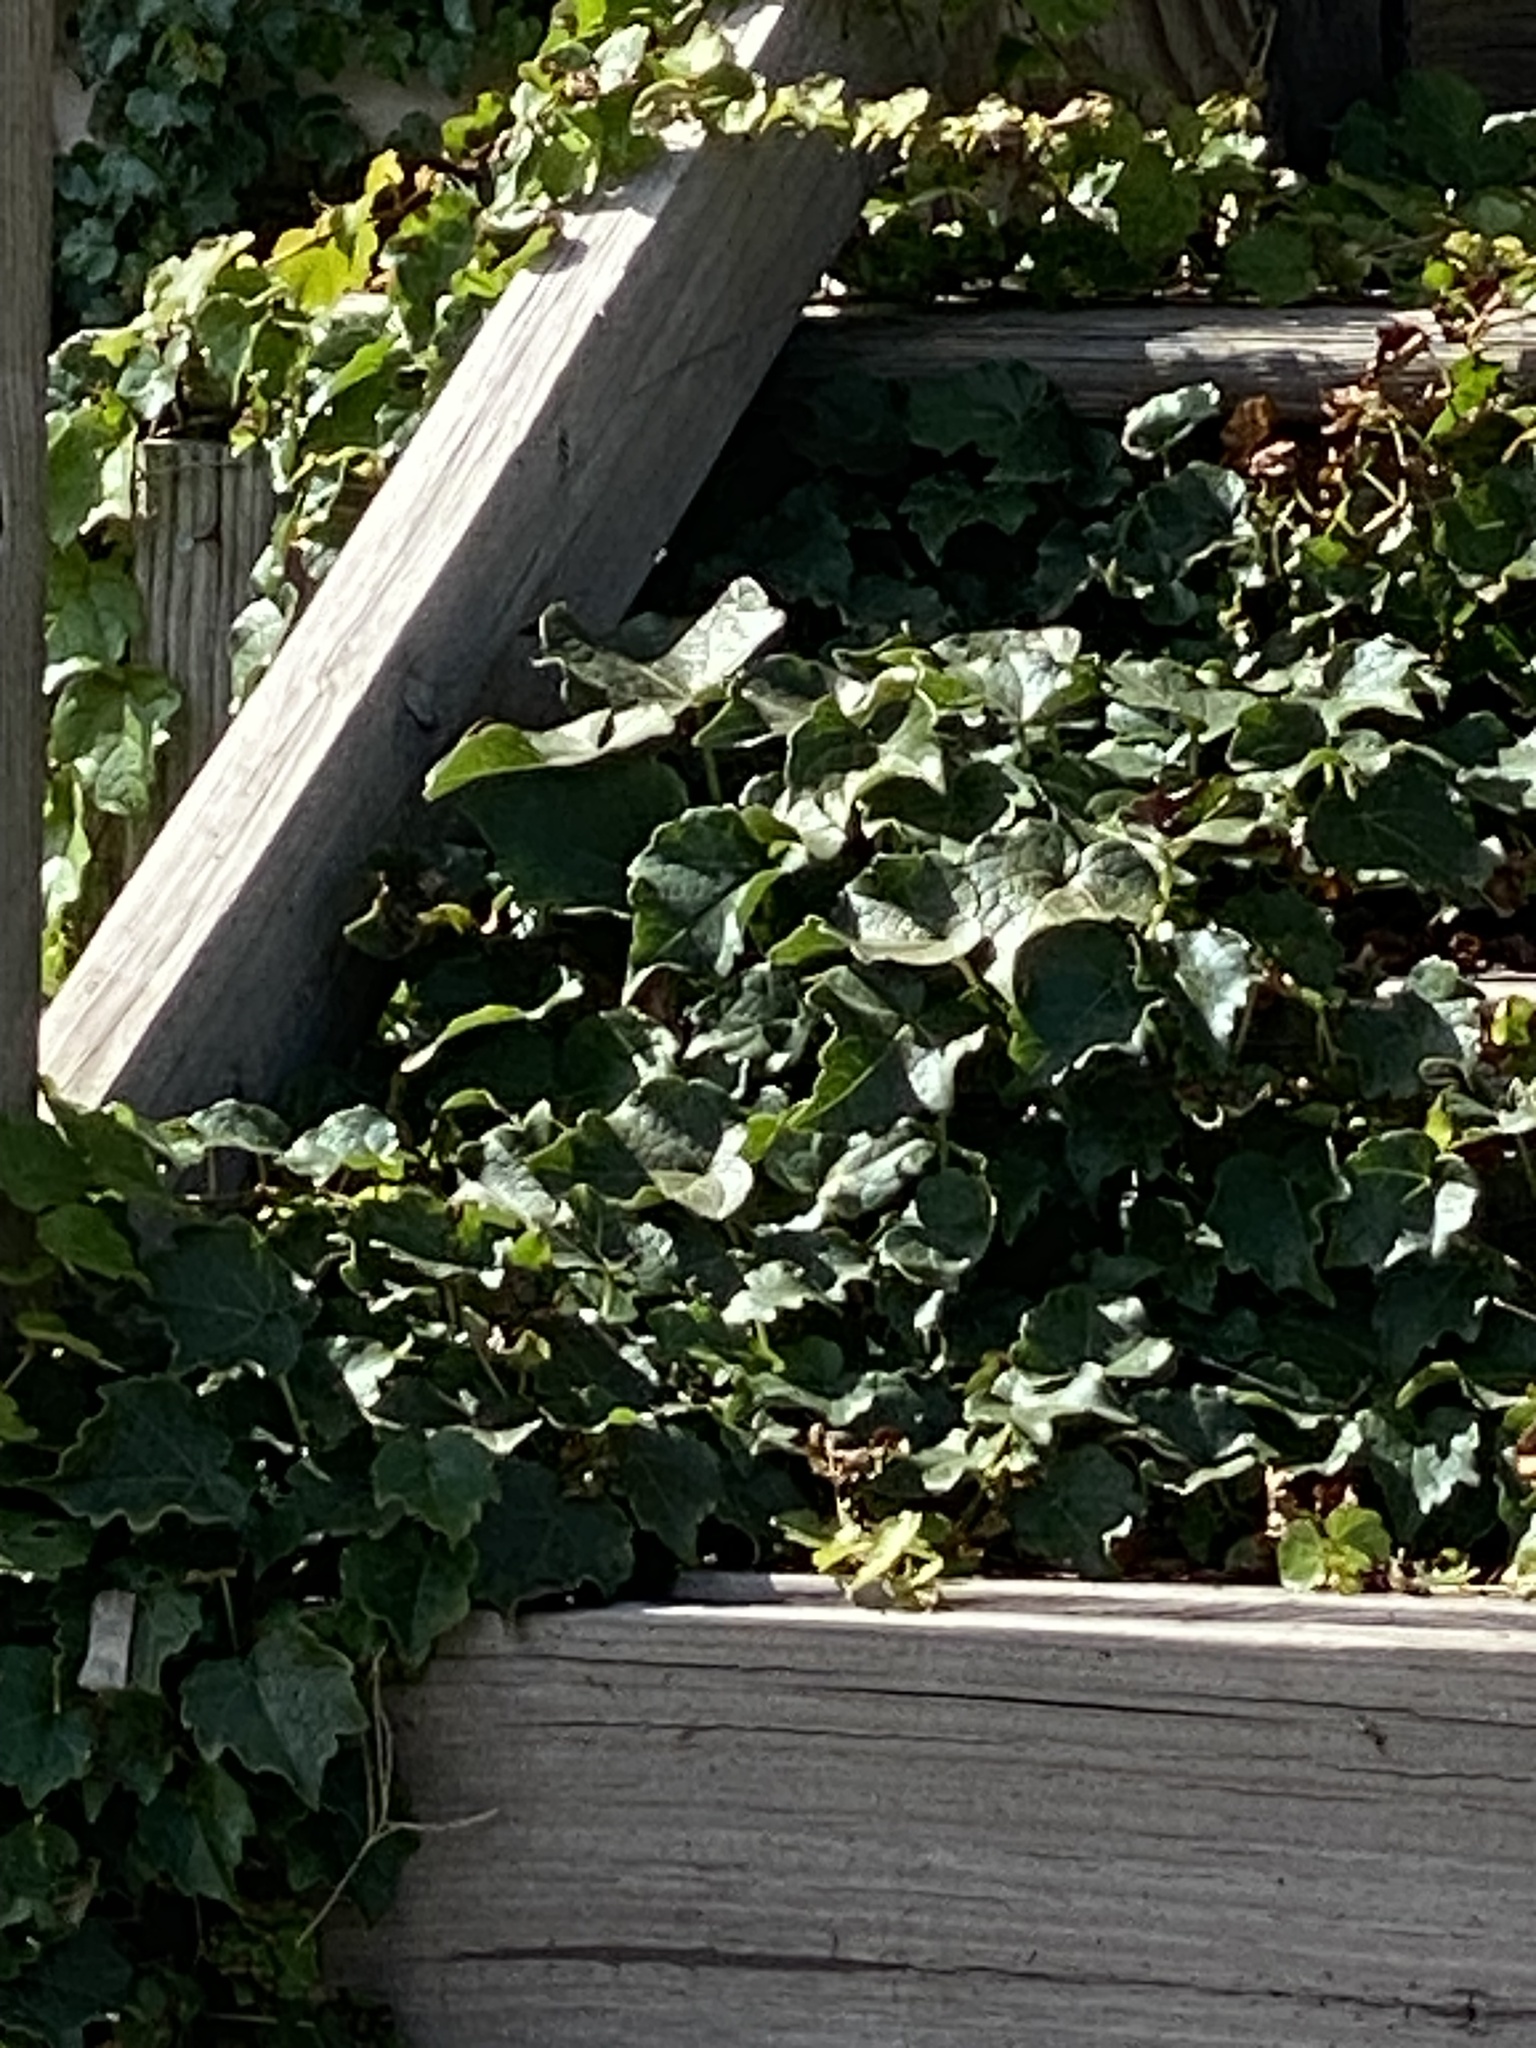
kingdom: Plantae
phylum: Tracheophyta
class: Magnoliopsida
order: Vitales
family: Vitaceae
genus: Parthenocissus
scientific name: Parthenocissus tricuspidata
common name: Boston ivy
